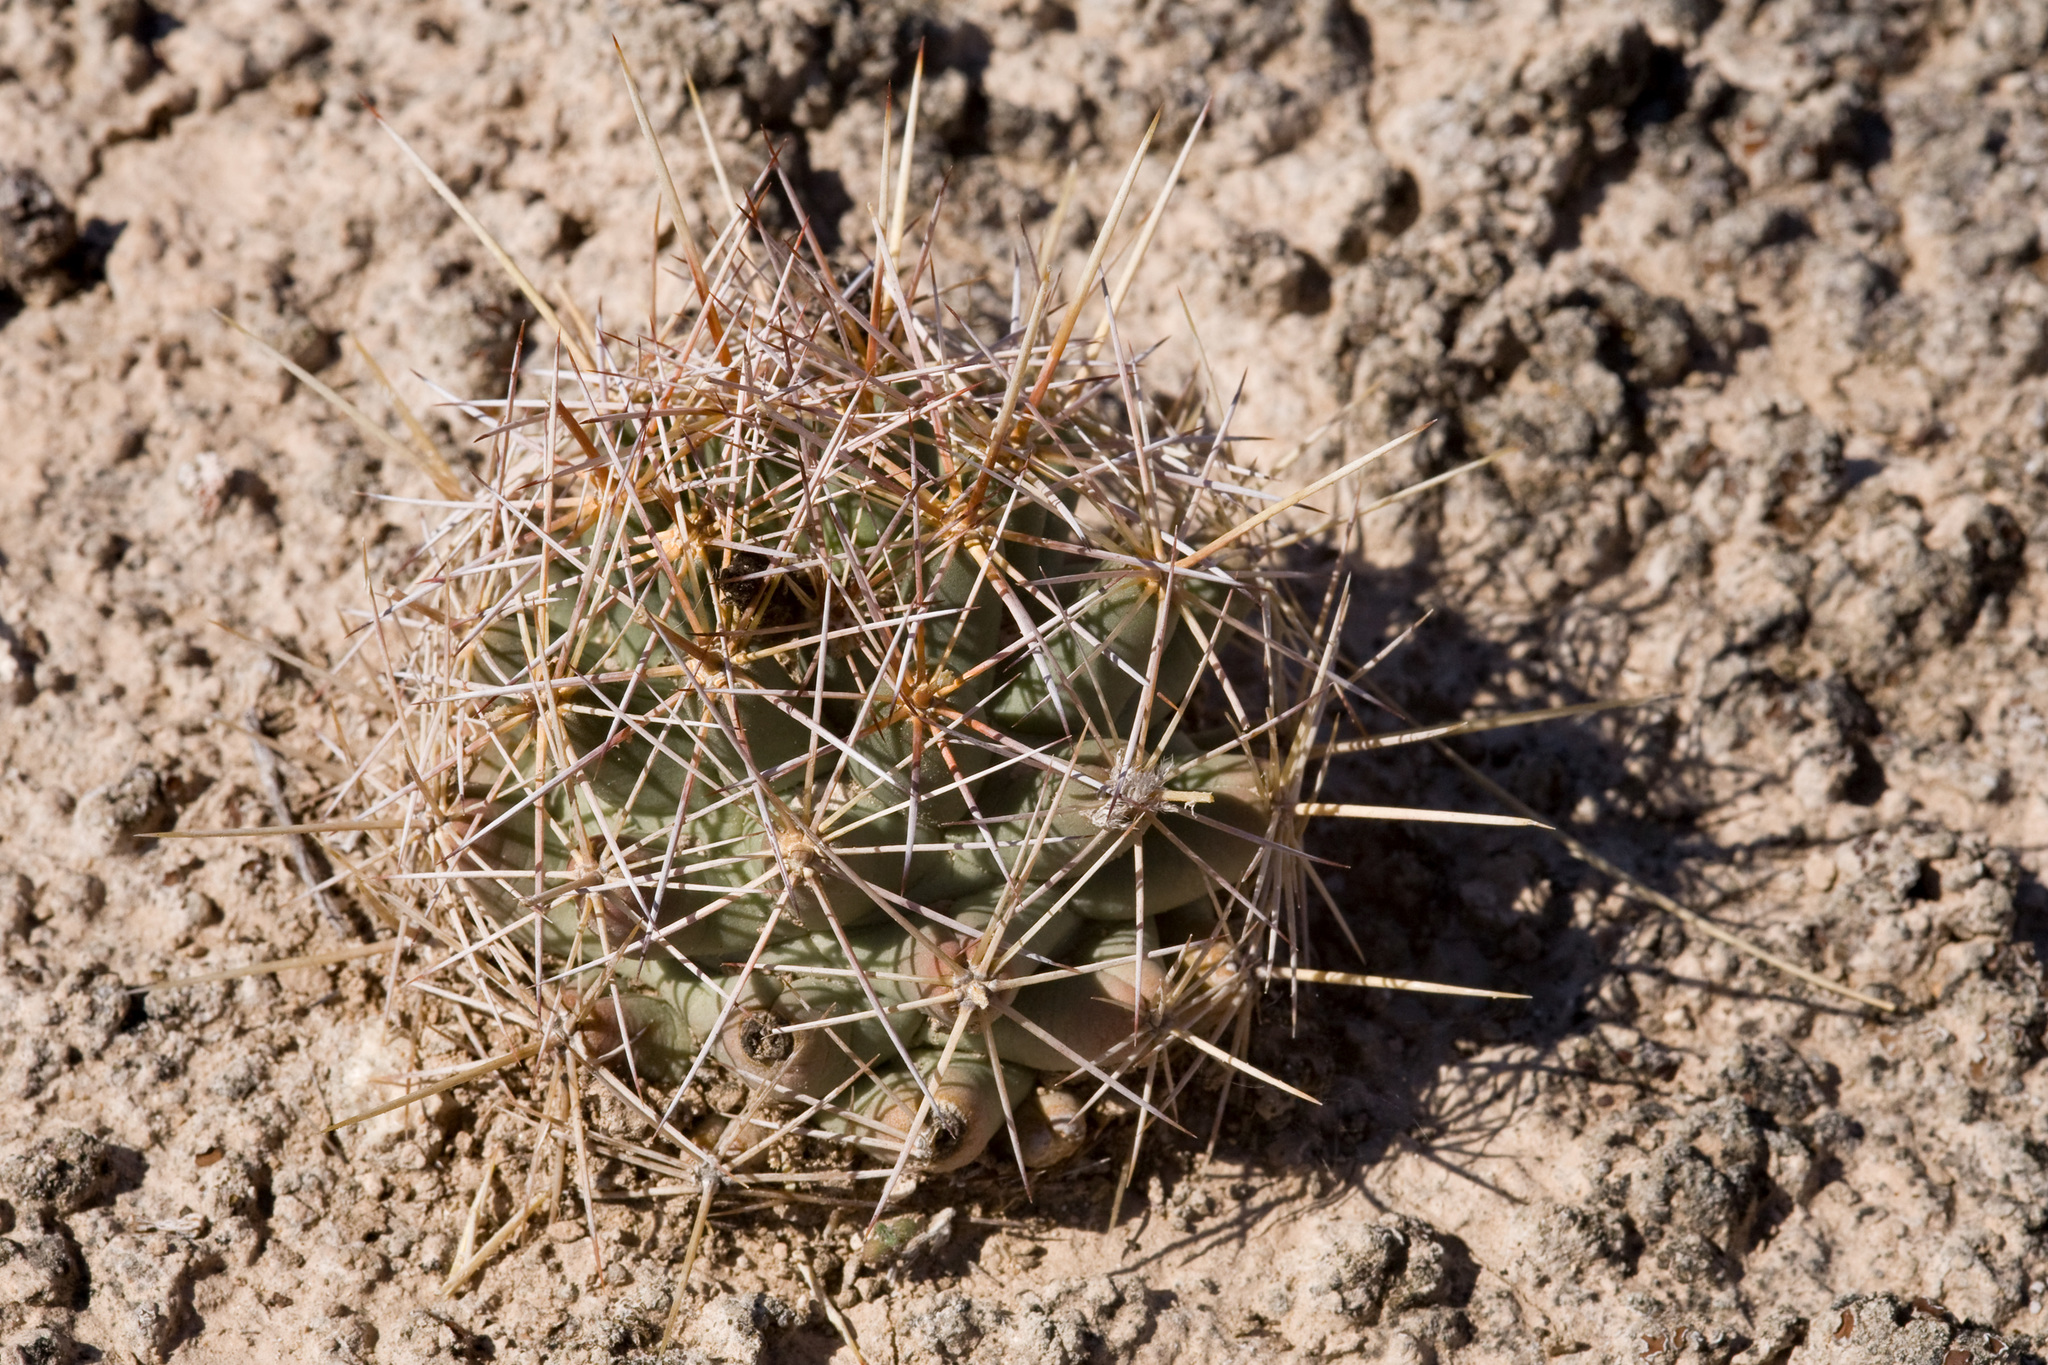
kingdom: Plantae
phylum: Tracheophyta
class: Magnoliopsida
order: Caryophyllales
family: Cactaceae
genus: Coryphantha
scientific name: Coryphantha robustispina
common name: Pima pineapple cactus
